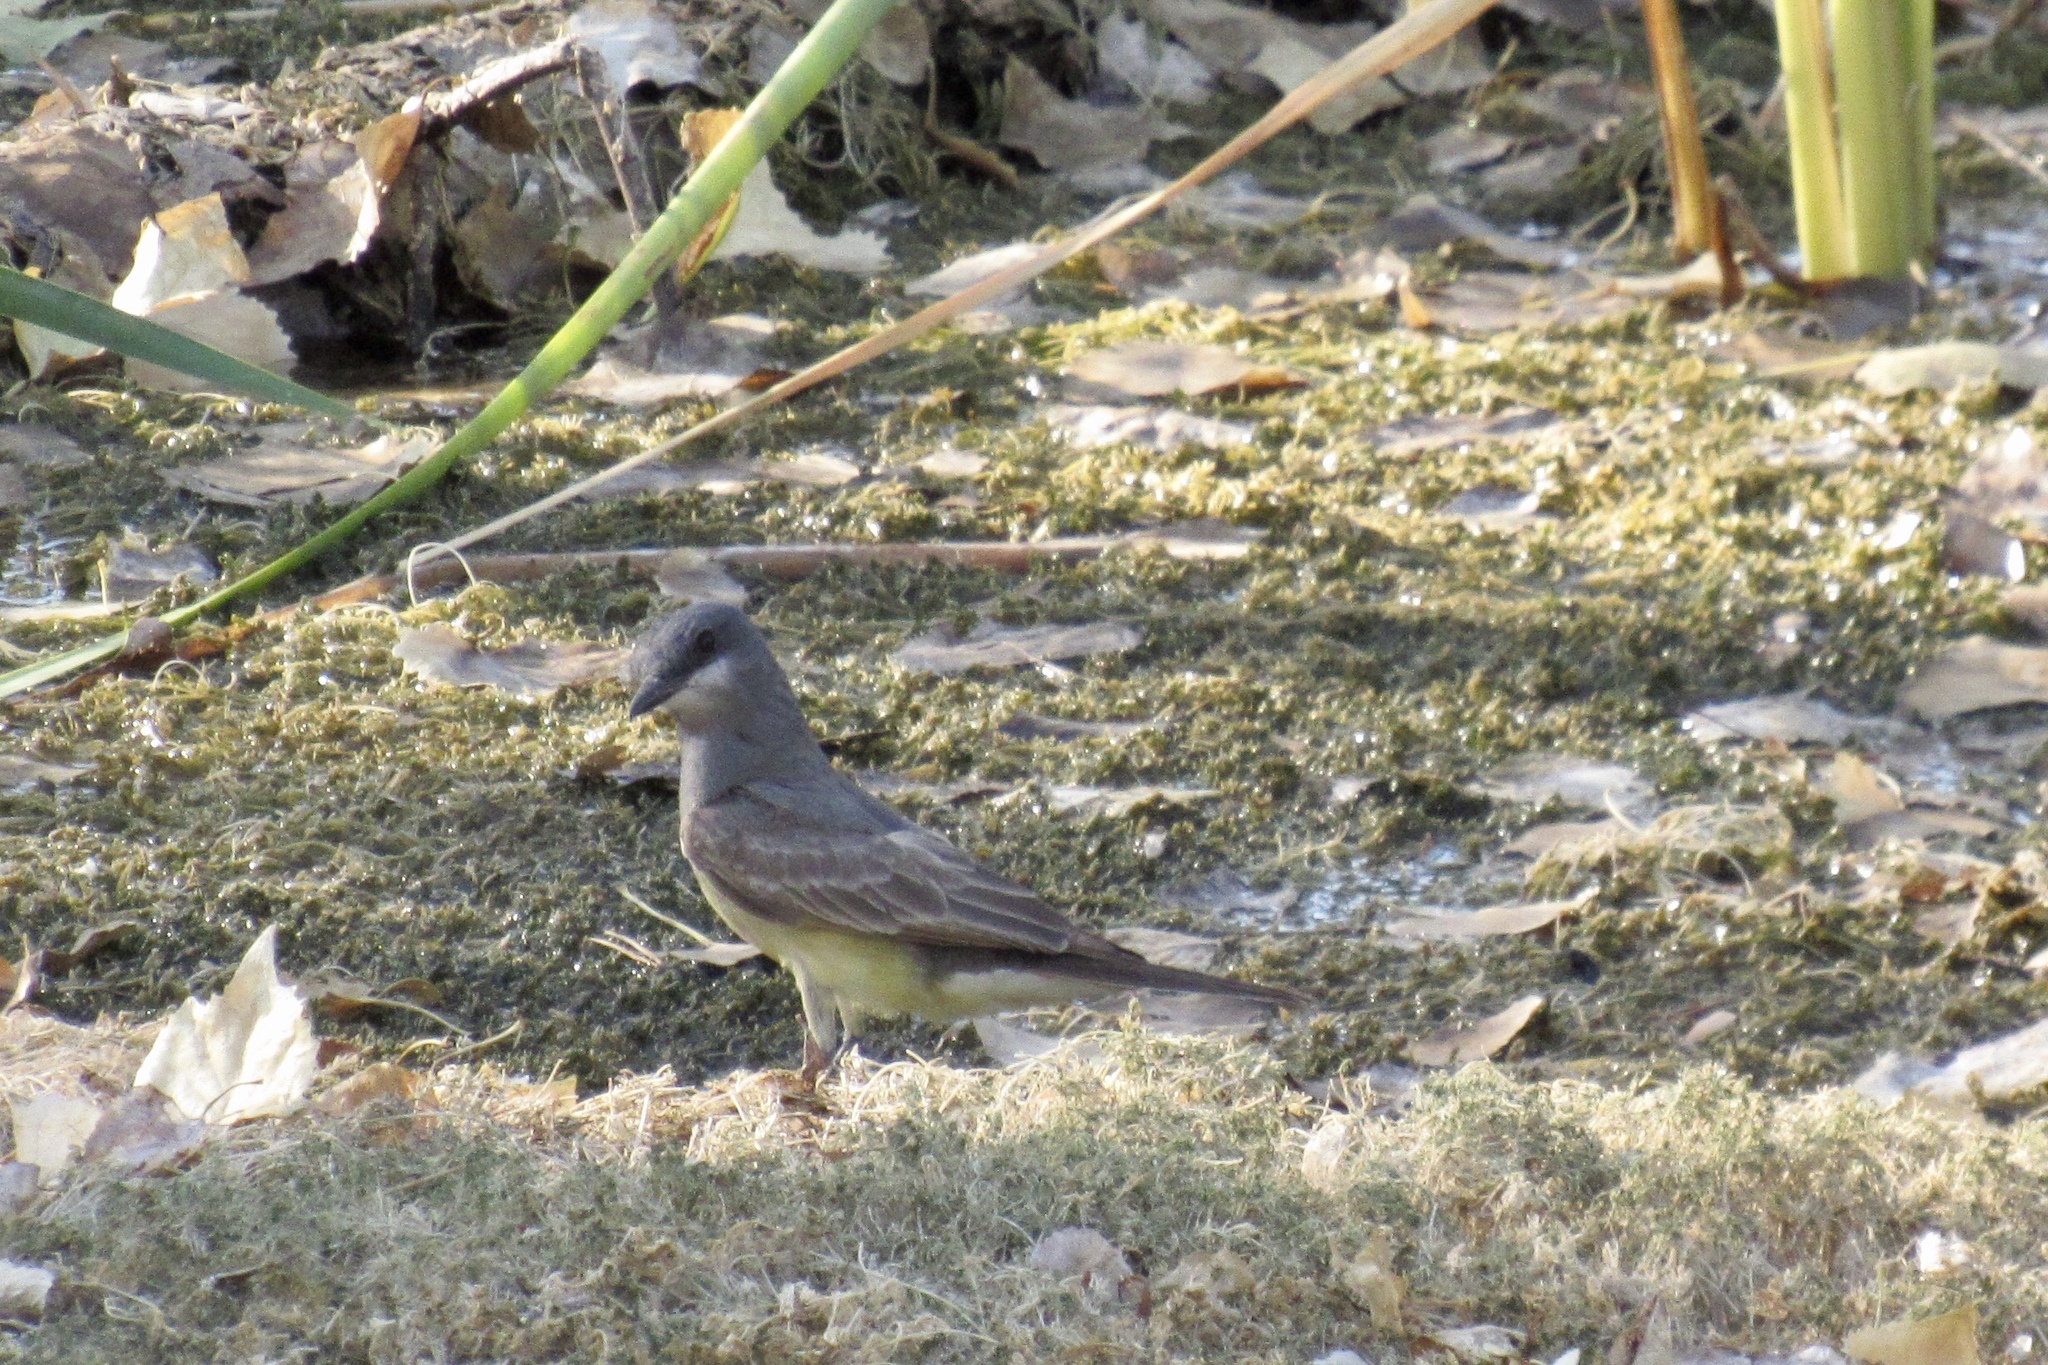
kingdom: Animalia
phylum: Chordata
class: Aves
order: Passeriformes
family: Tyrannidae
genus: Tyrannus
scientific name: Tyrannus vociferans
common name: Cassin's kingbird
